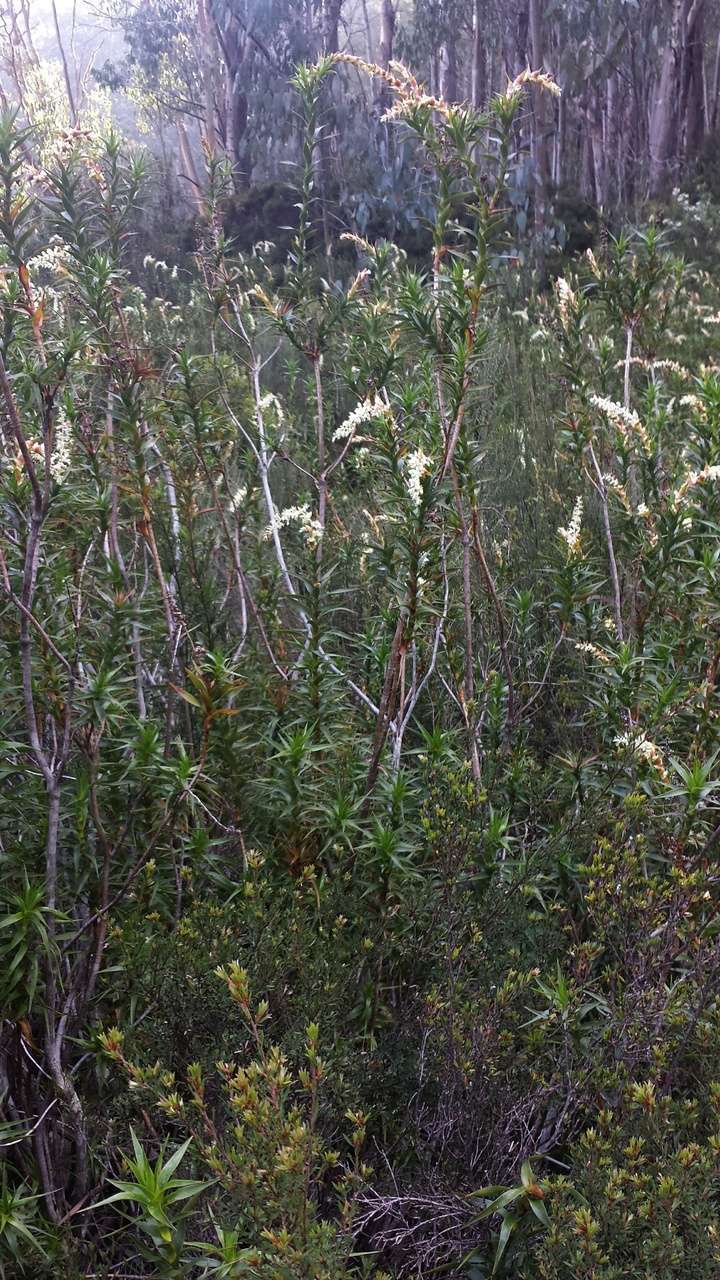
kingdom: Plantae
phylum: Tracheophyta
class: Magnoliopsida
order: Ericales
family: Ericaceae
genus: Dracophyllum
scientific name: Dracophyllum victorianum
